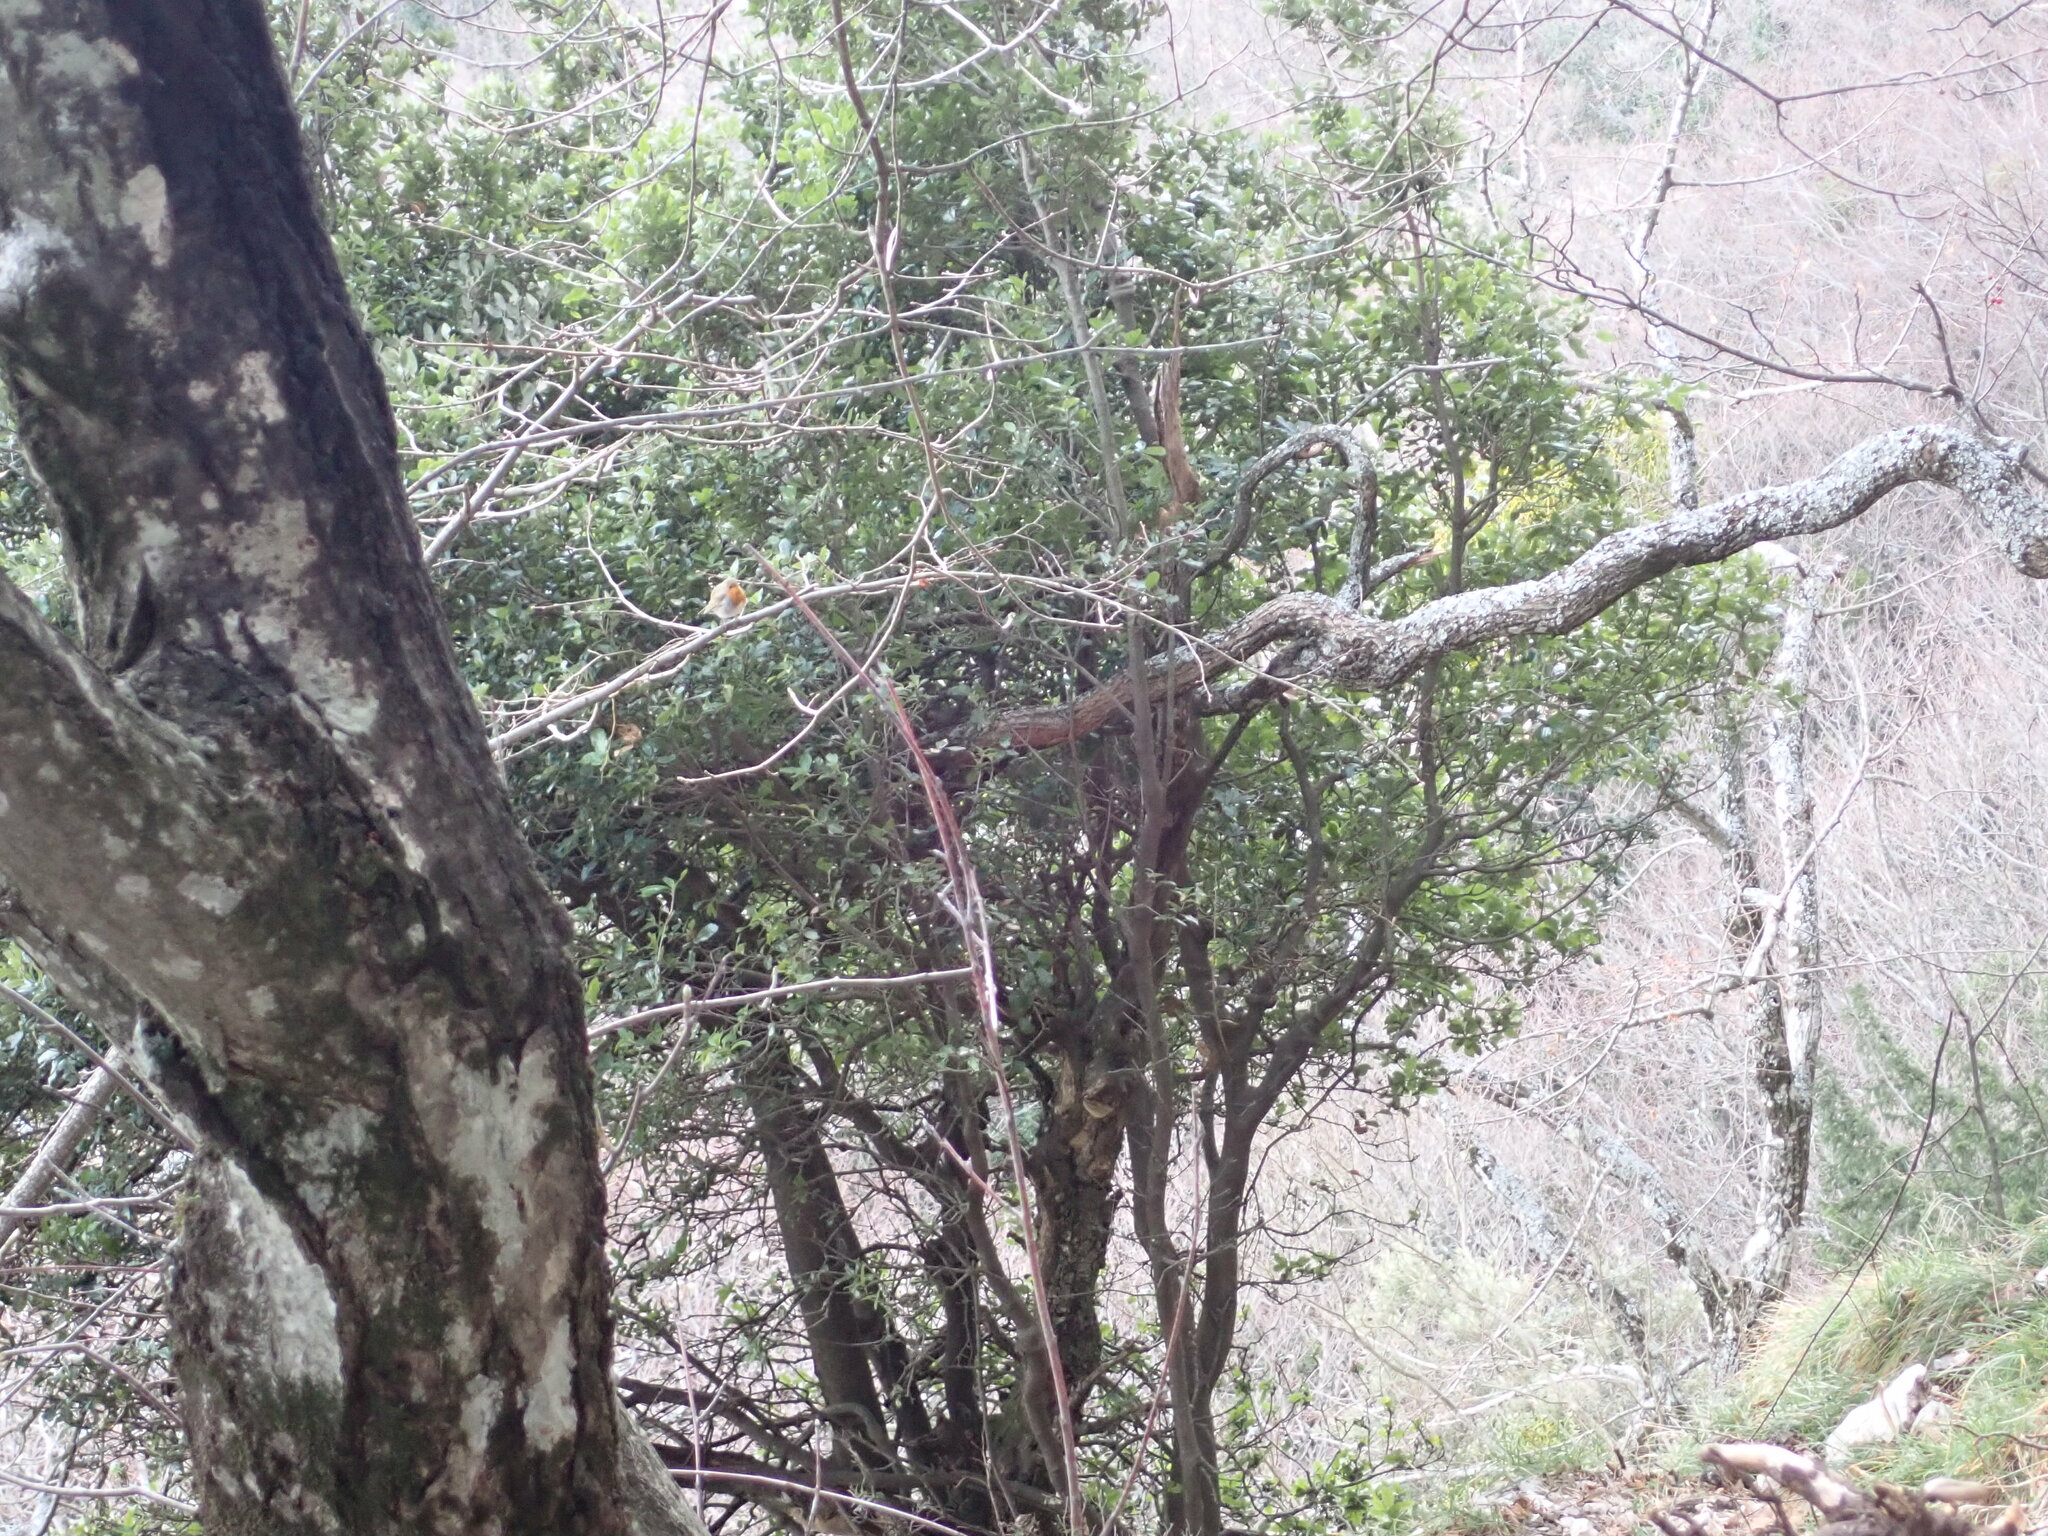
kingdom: Animalia
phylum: Chordata
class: Aves
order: Passeriformes
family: Muscicapidae
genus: Erithacus
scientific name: Erithacus rubecula
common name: European robin
